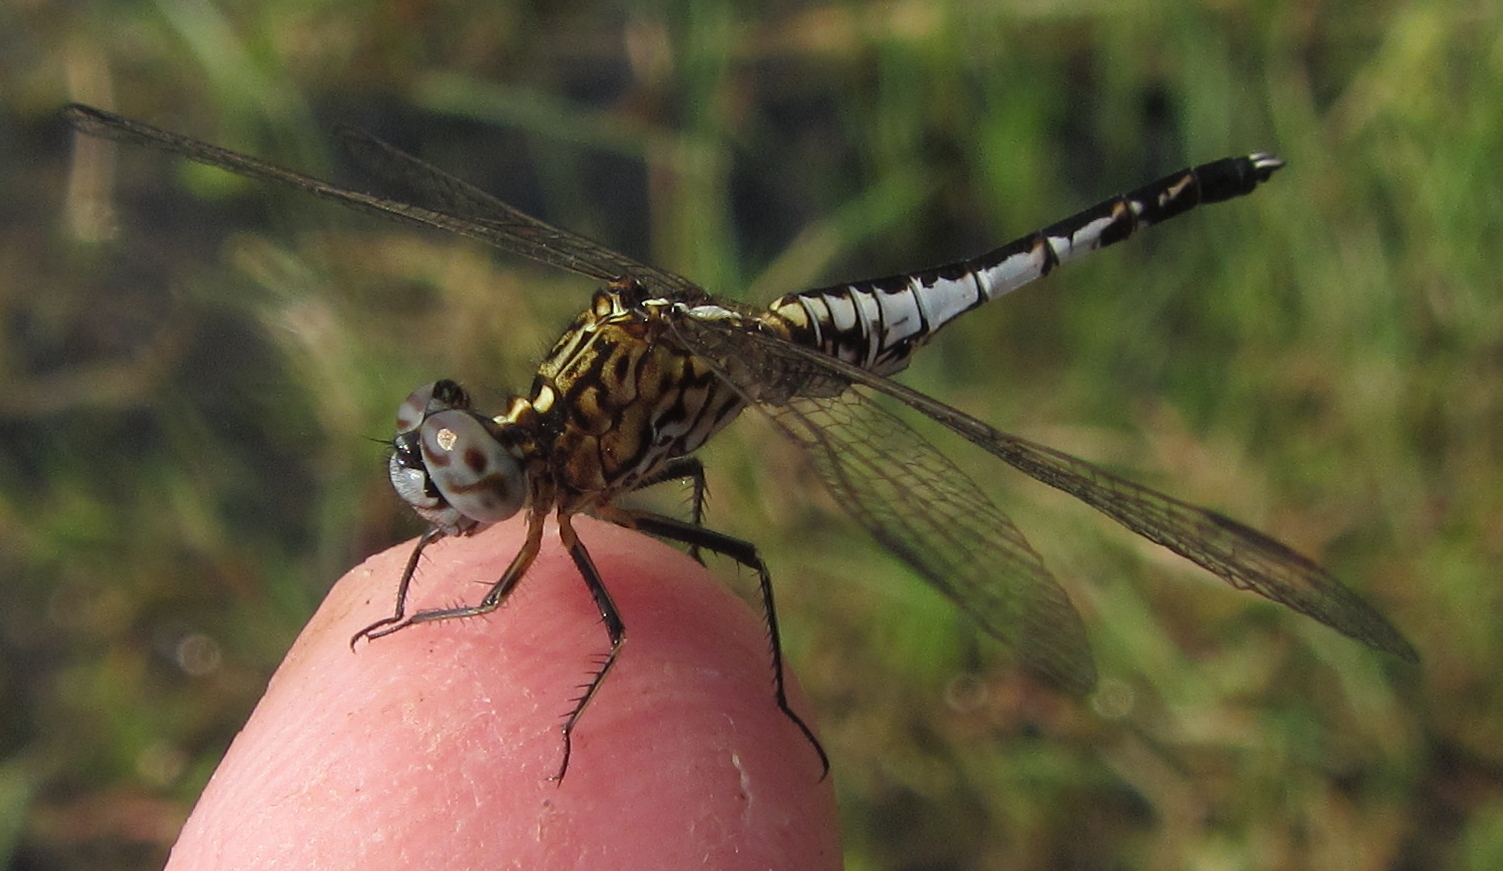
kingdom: Animalia
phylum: Arthropoda
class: Insecta
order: Odonata
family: Libellulidae
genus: Acisoma
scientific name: Acisoma inflatum
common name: Stout pintail
